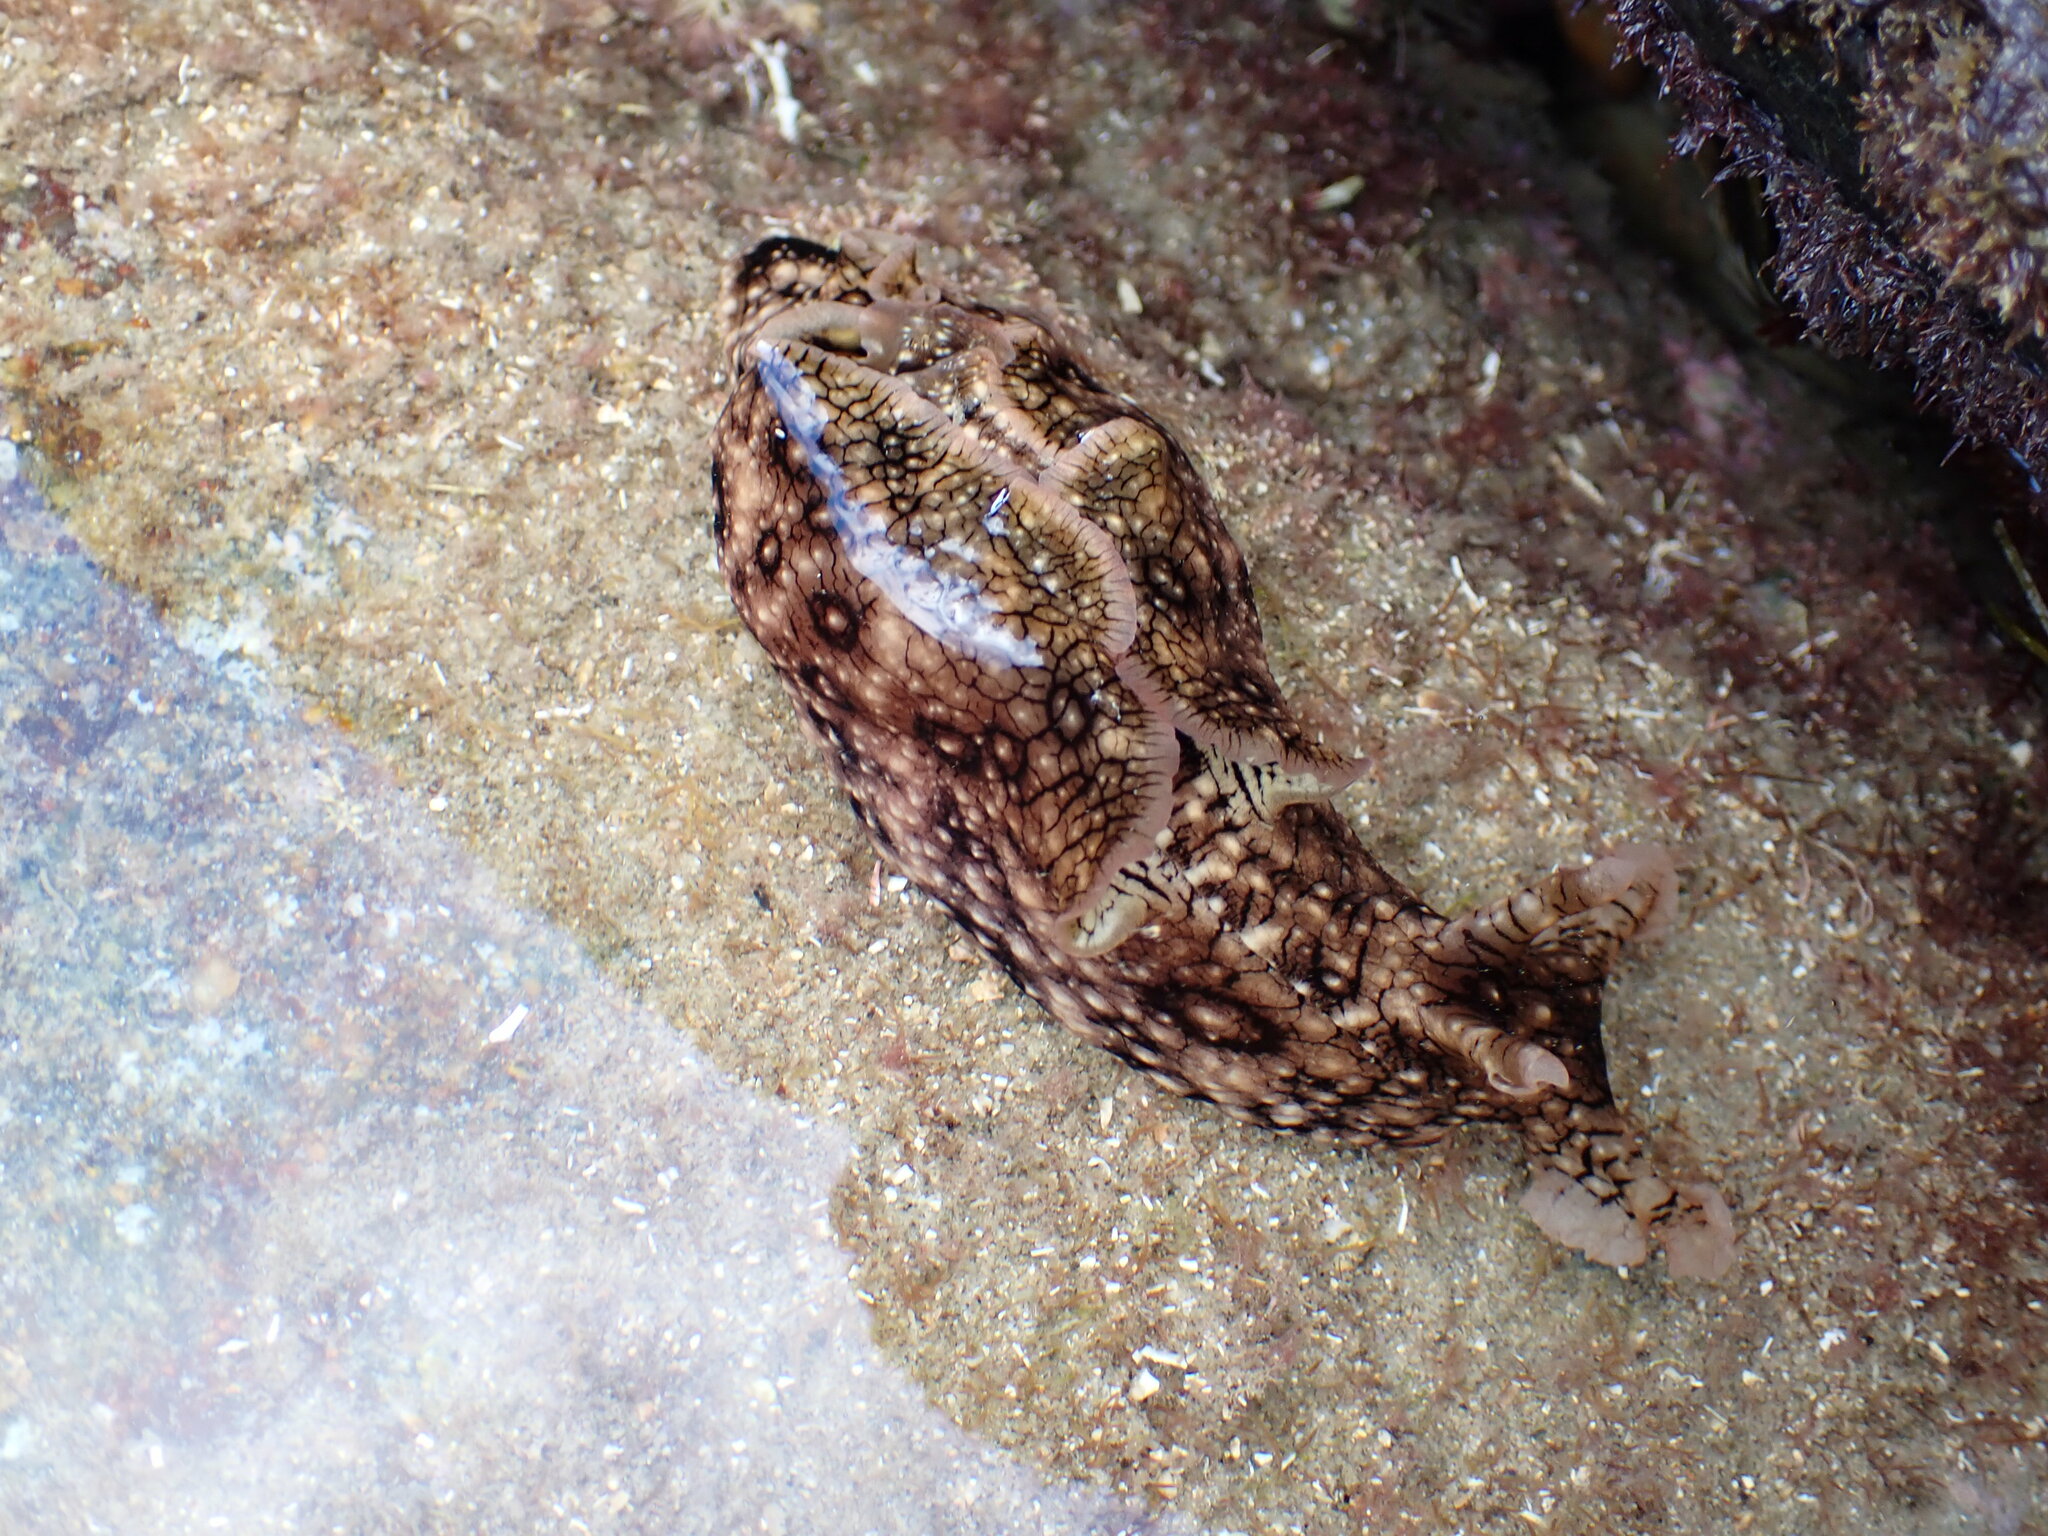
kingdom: Animalia
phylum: Mollusca
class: Gastropoda
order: Aplysiida
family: Aplysiidae
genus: Aplysia
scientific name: Aplysia argus
